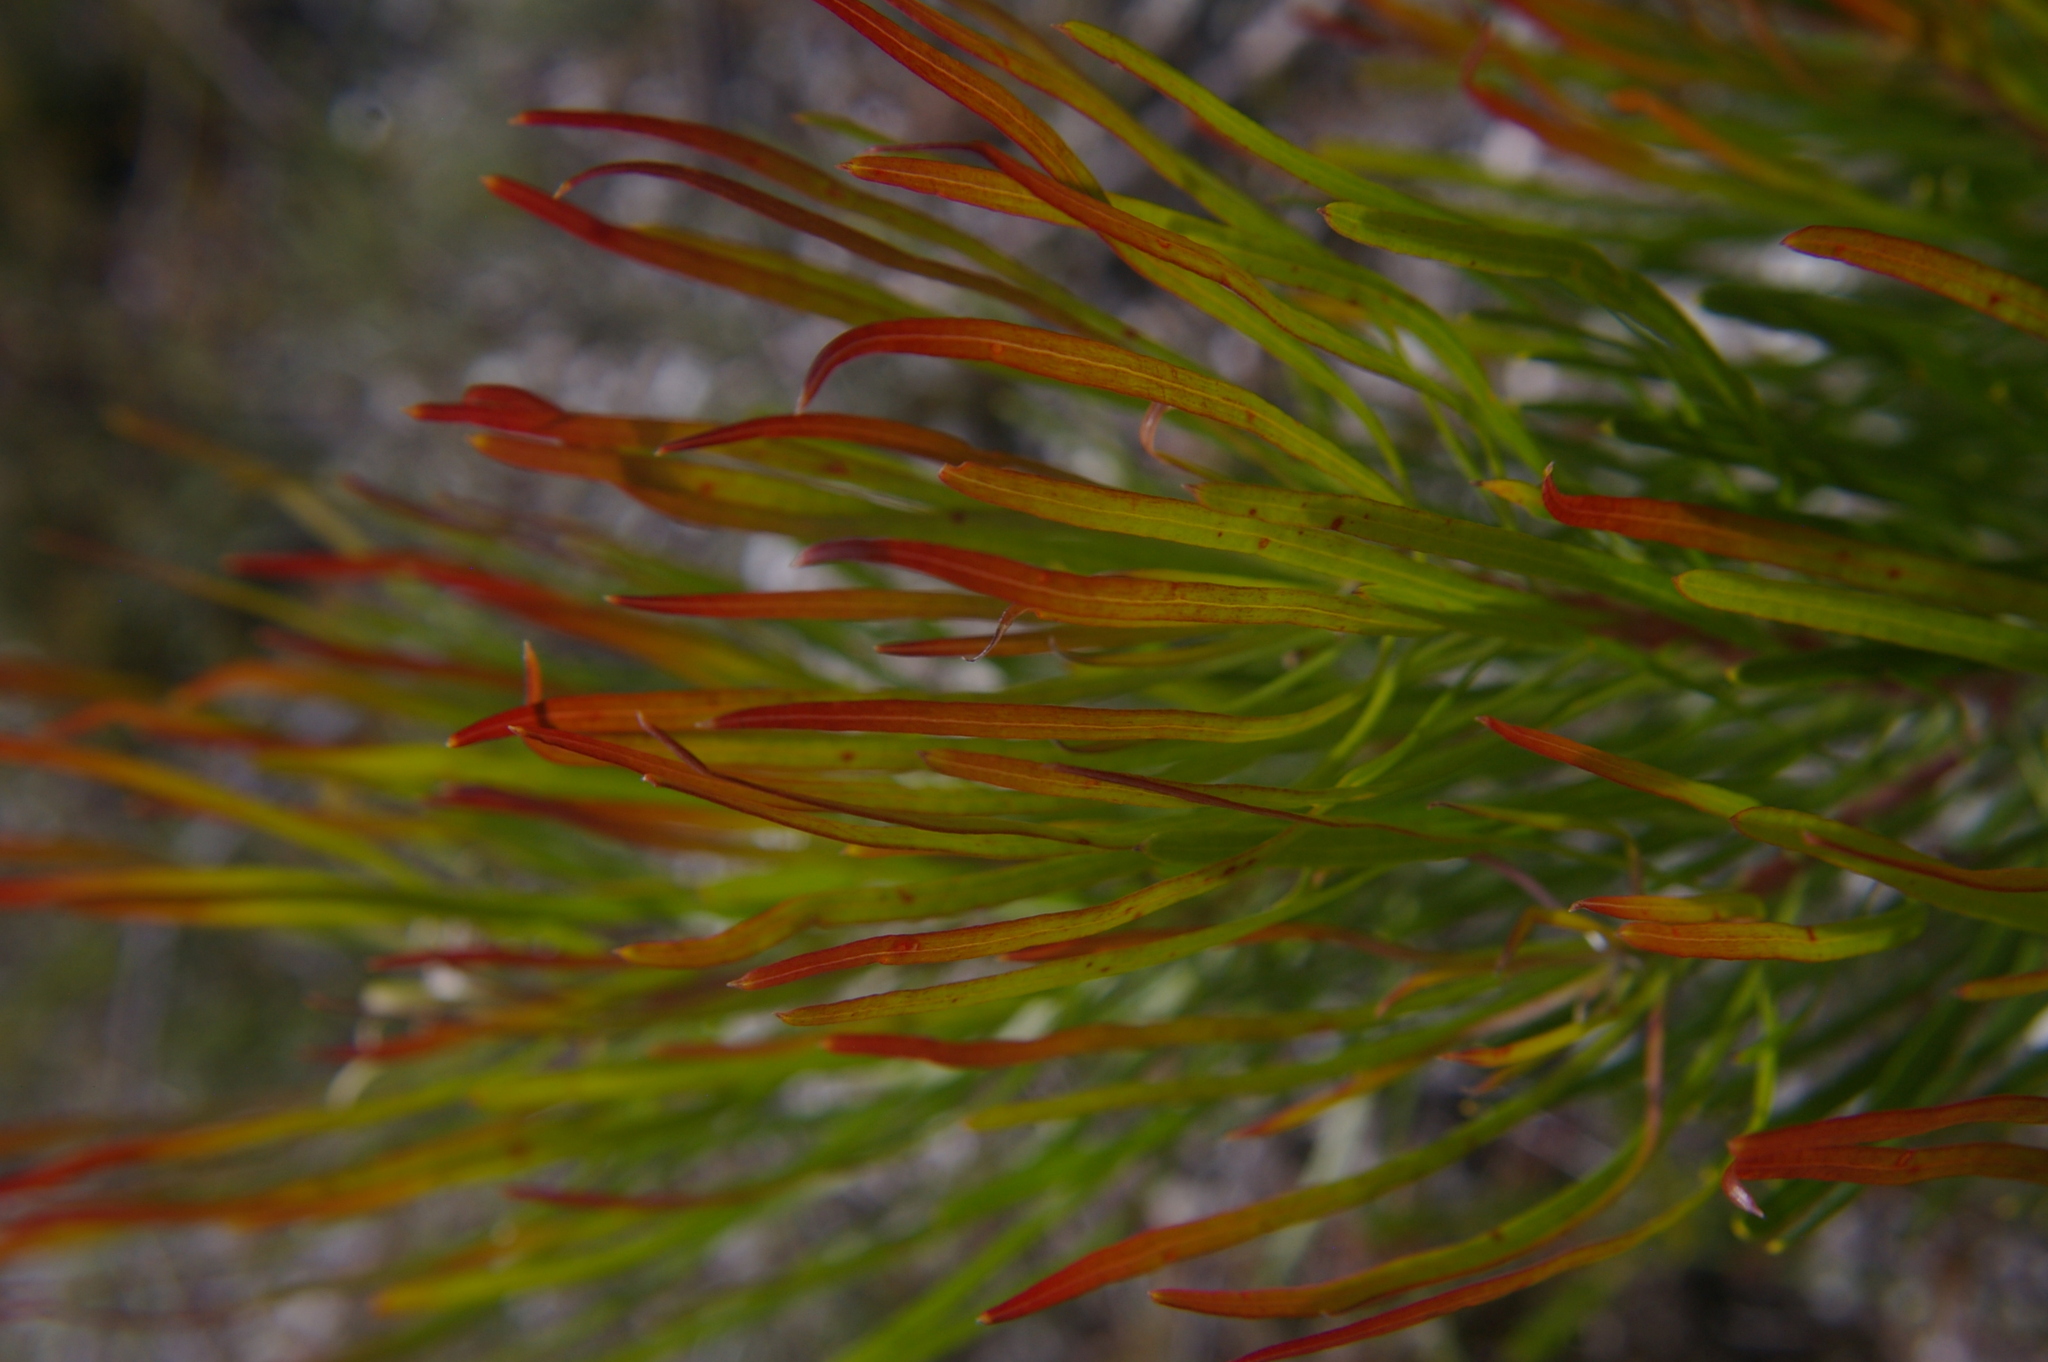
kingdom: Plantae
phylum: Tracheophyta
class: Magnoliopsida
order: Proteales
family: Proteaceae
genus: Conospermum
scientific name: Conospermum mitchellii
